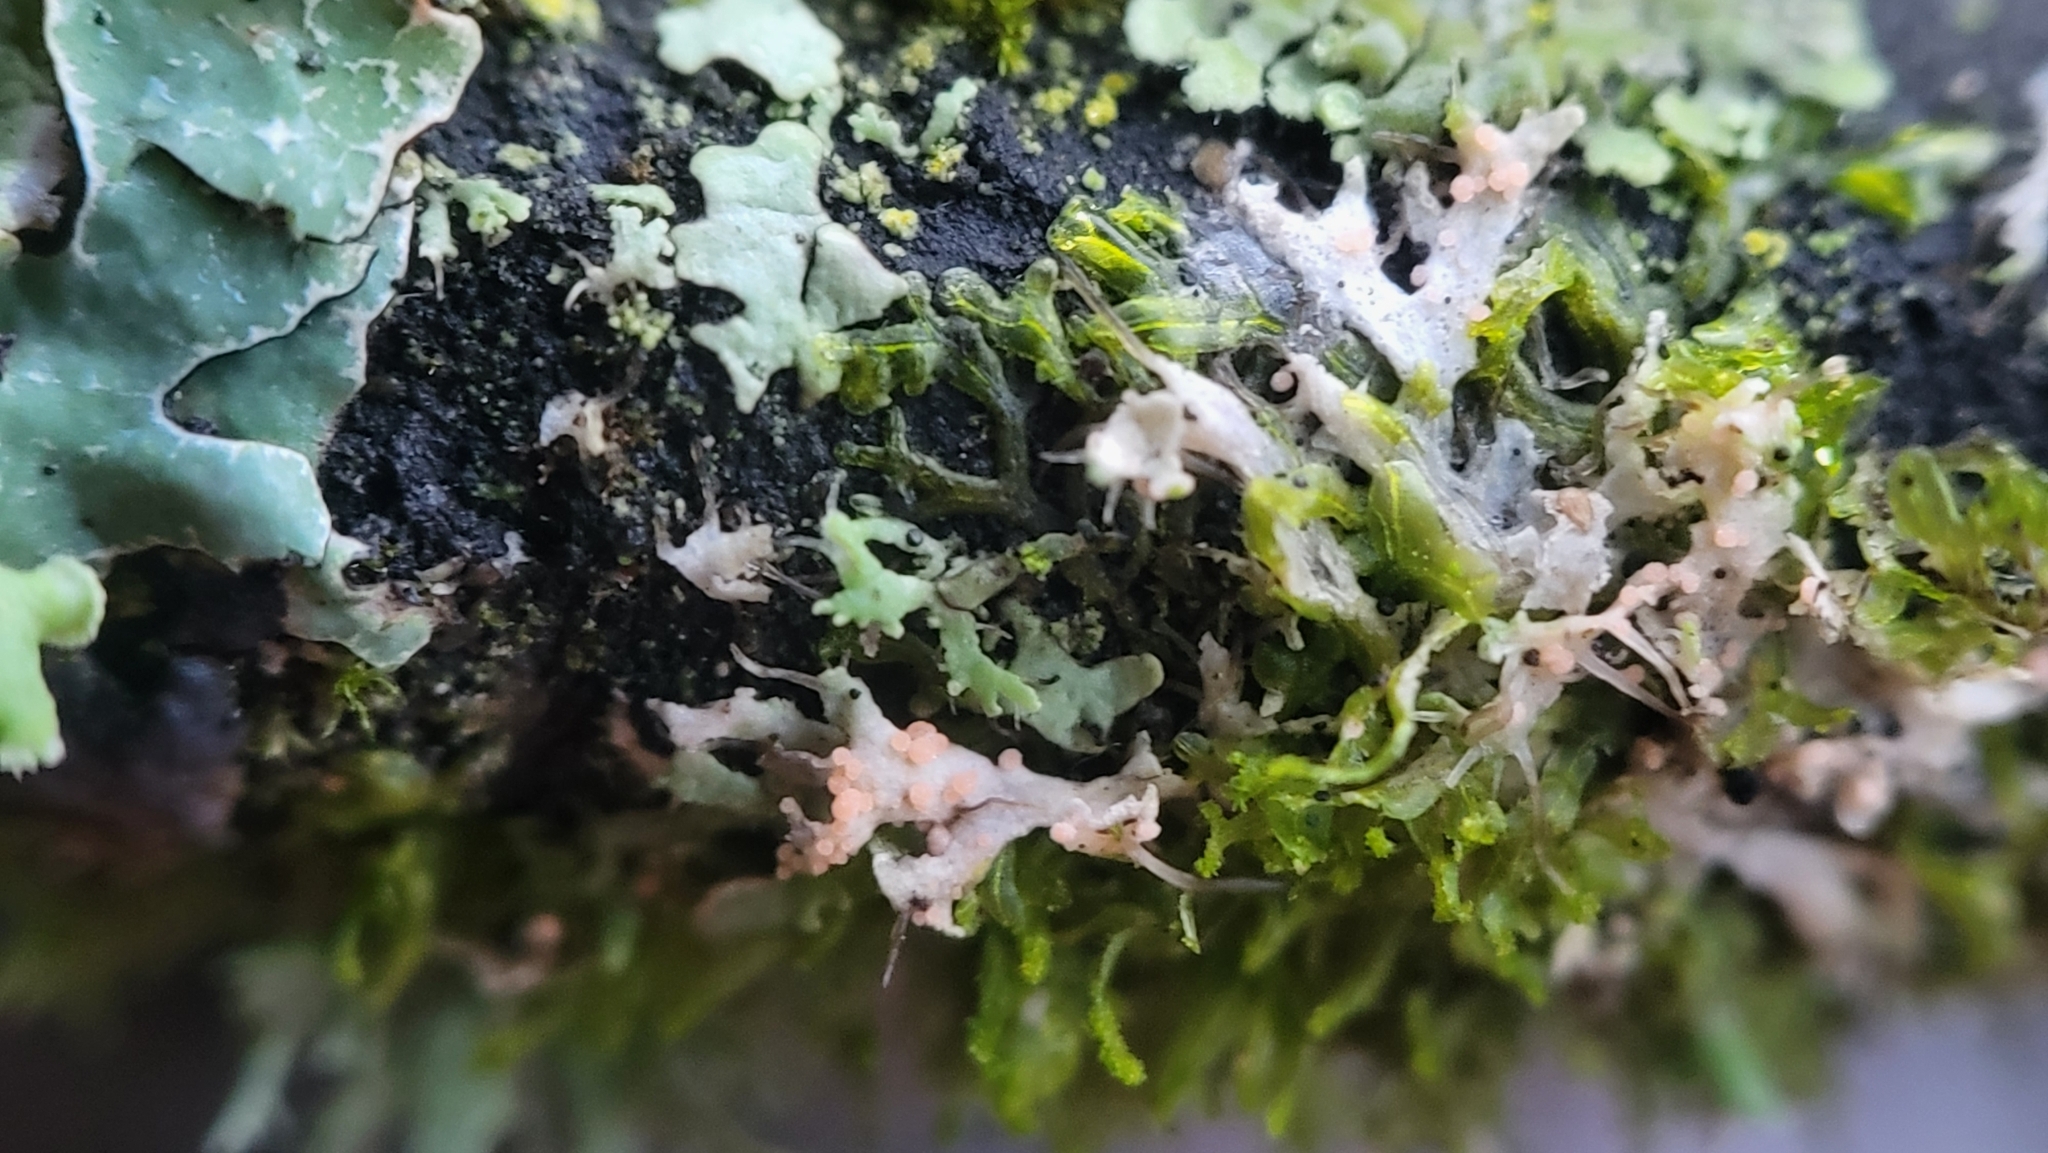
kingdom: Fungi
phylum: Basidiomycota
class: Agaricomycetes
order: Corticiales
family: Corticiaceae
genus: Erythricium
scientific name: Erythricium aurantiacum
